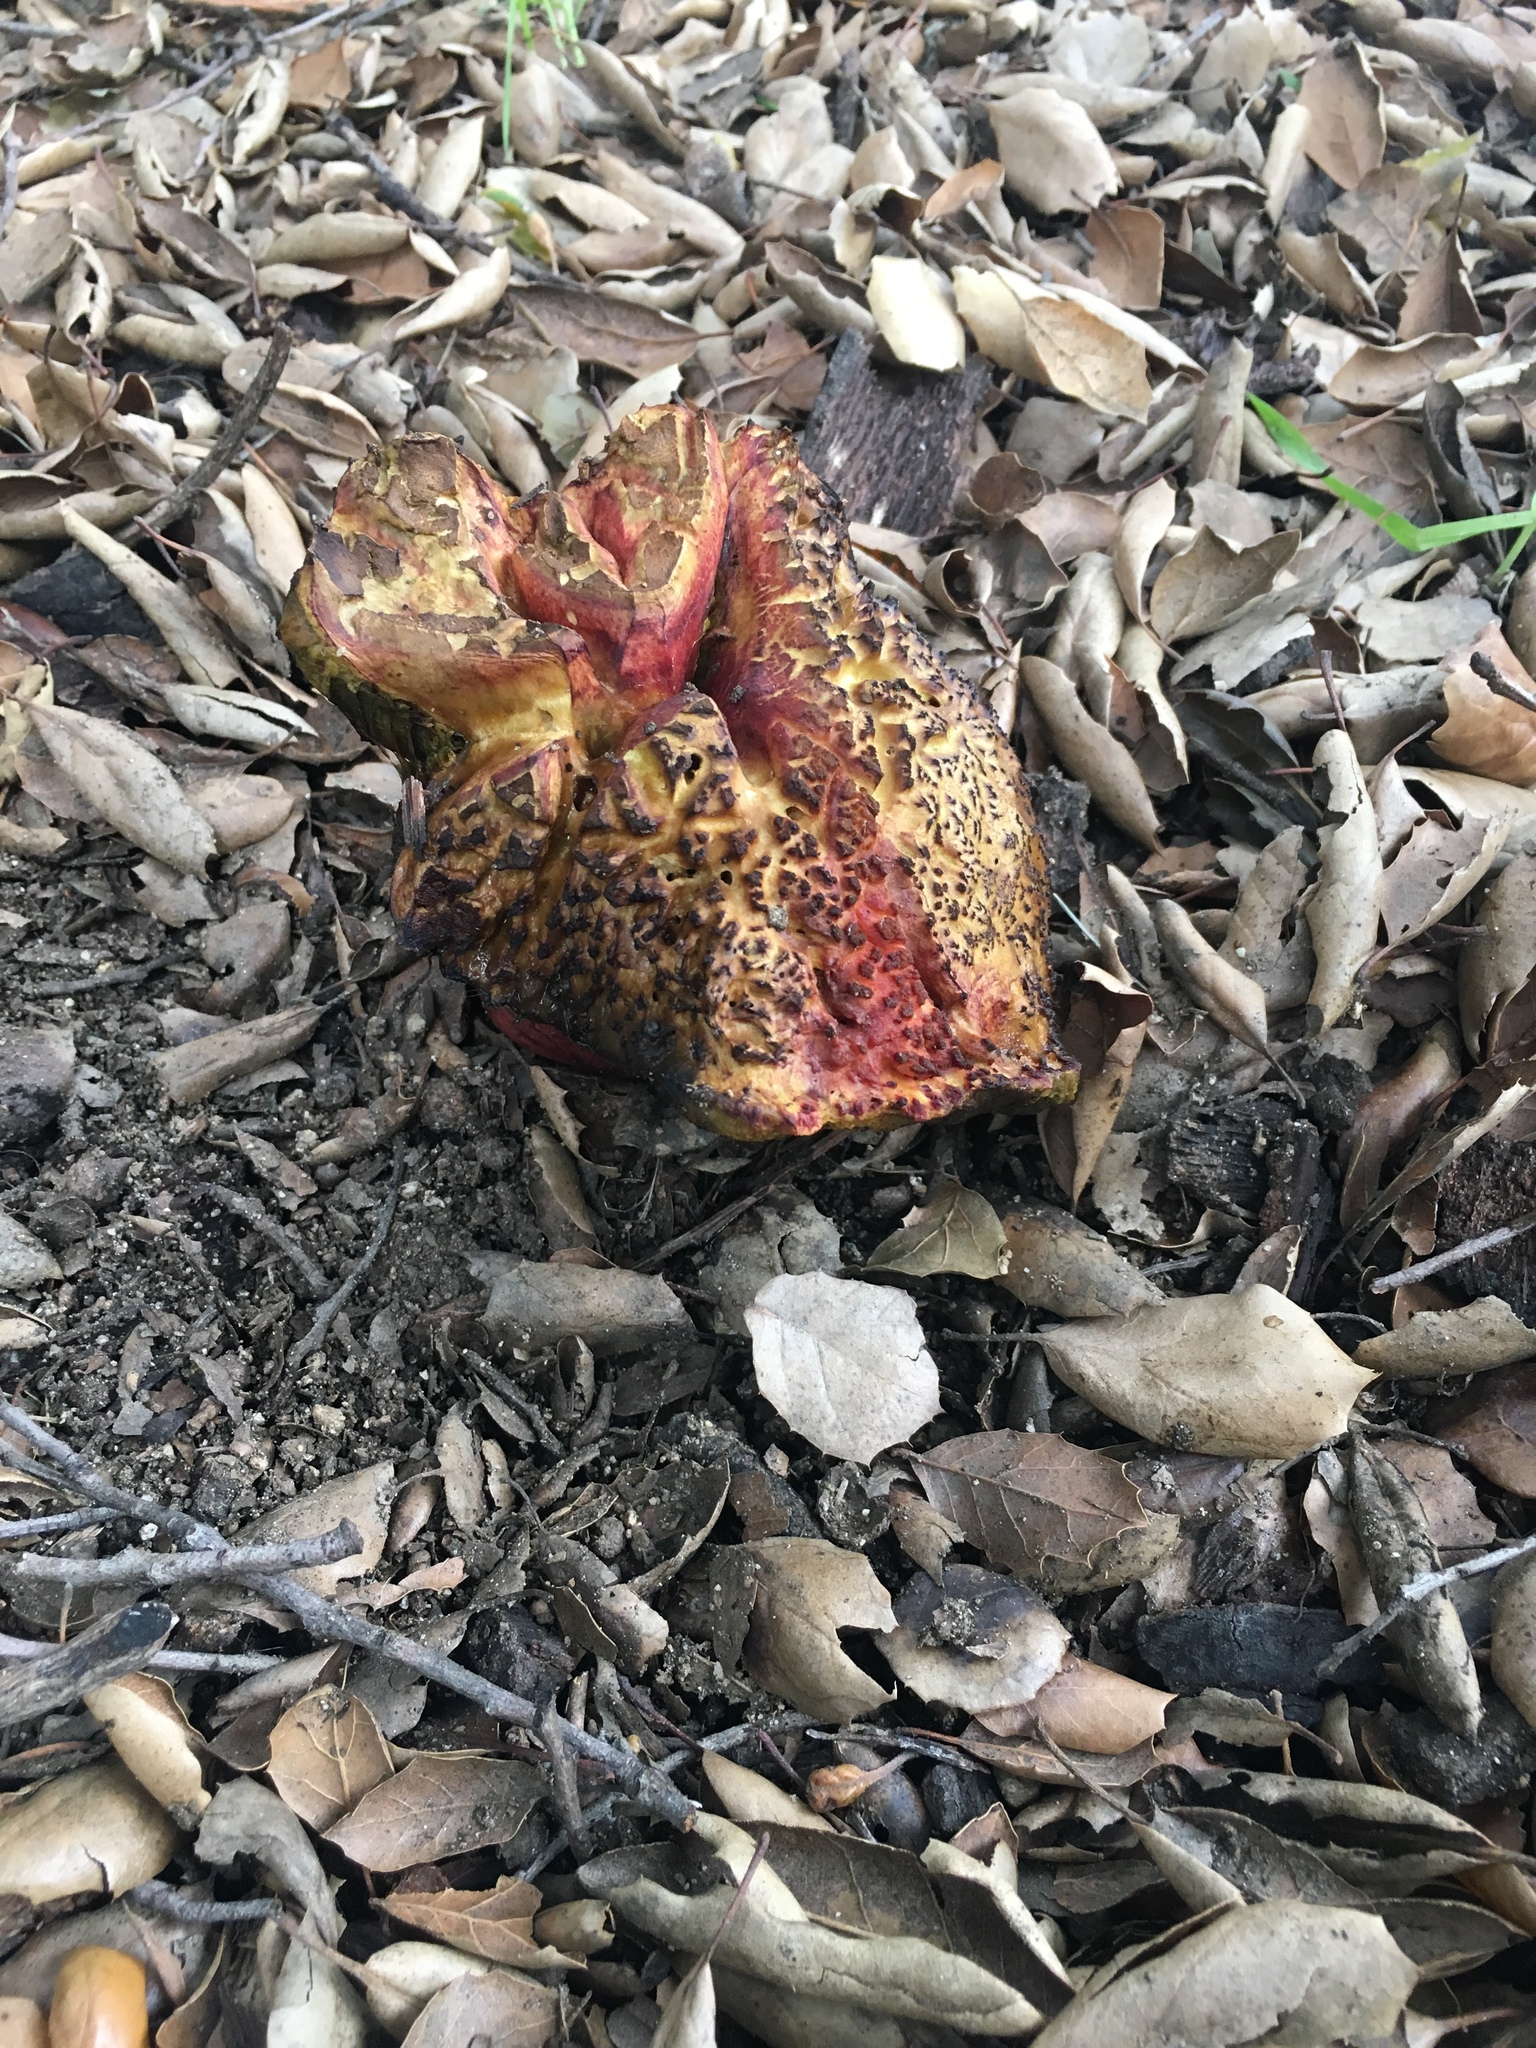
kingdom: Fungi
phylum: Basidiomycota
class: Agaricomycetes
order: Boletales
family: Boletaceae
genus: Xerocomellus
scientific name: Xerocomellus dryophilus
